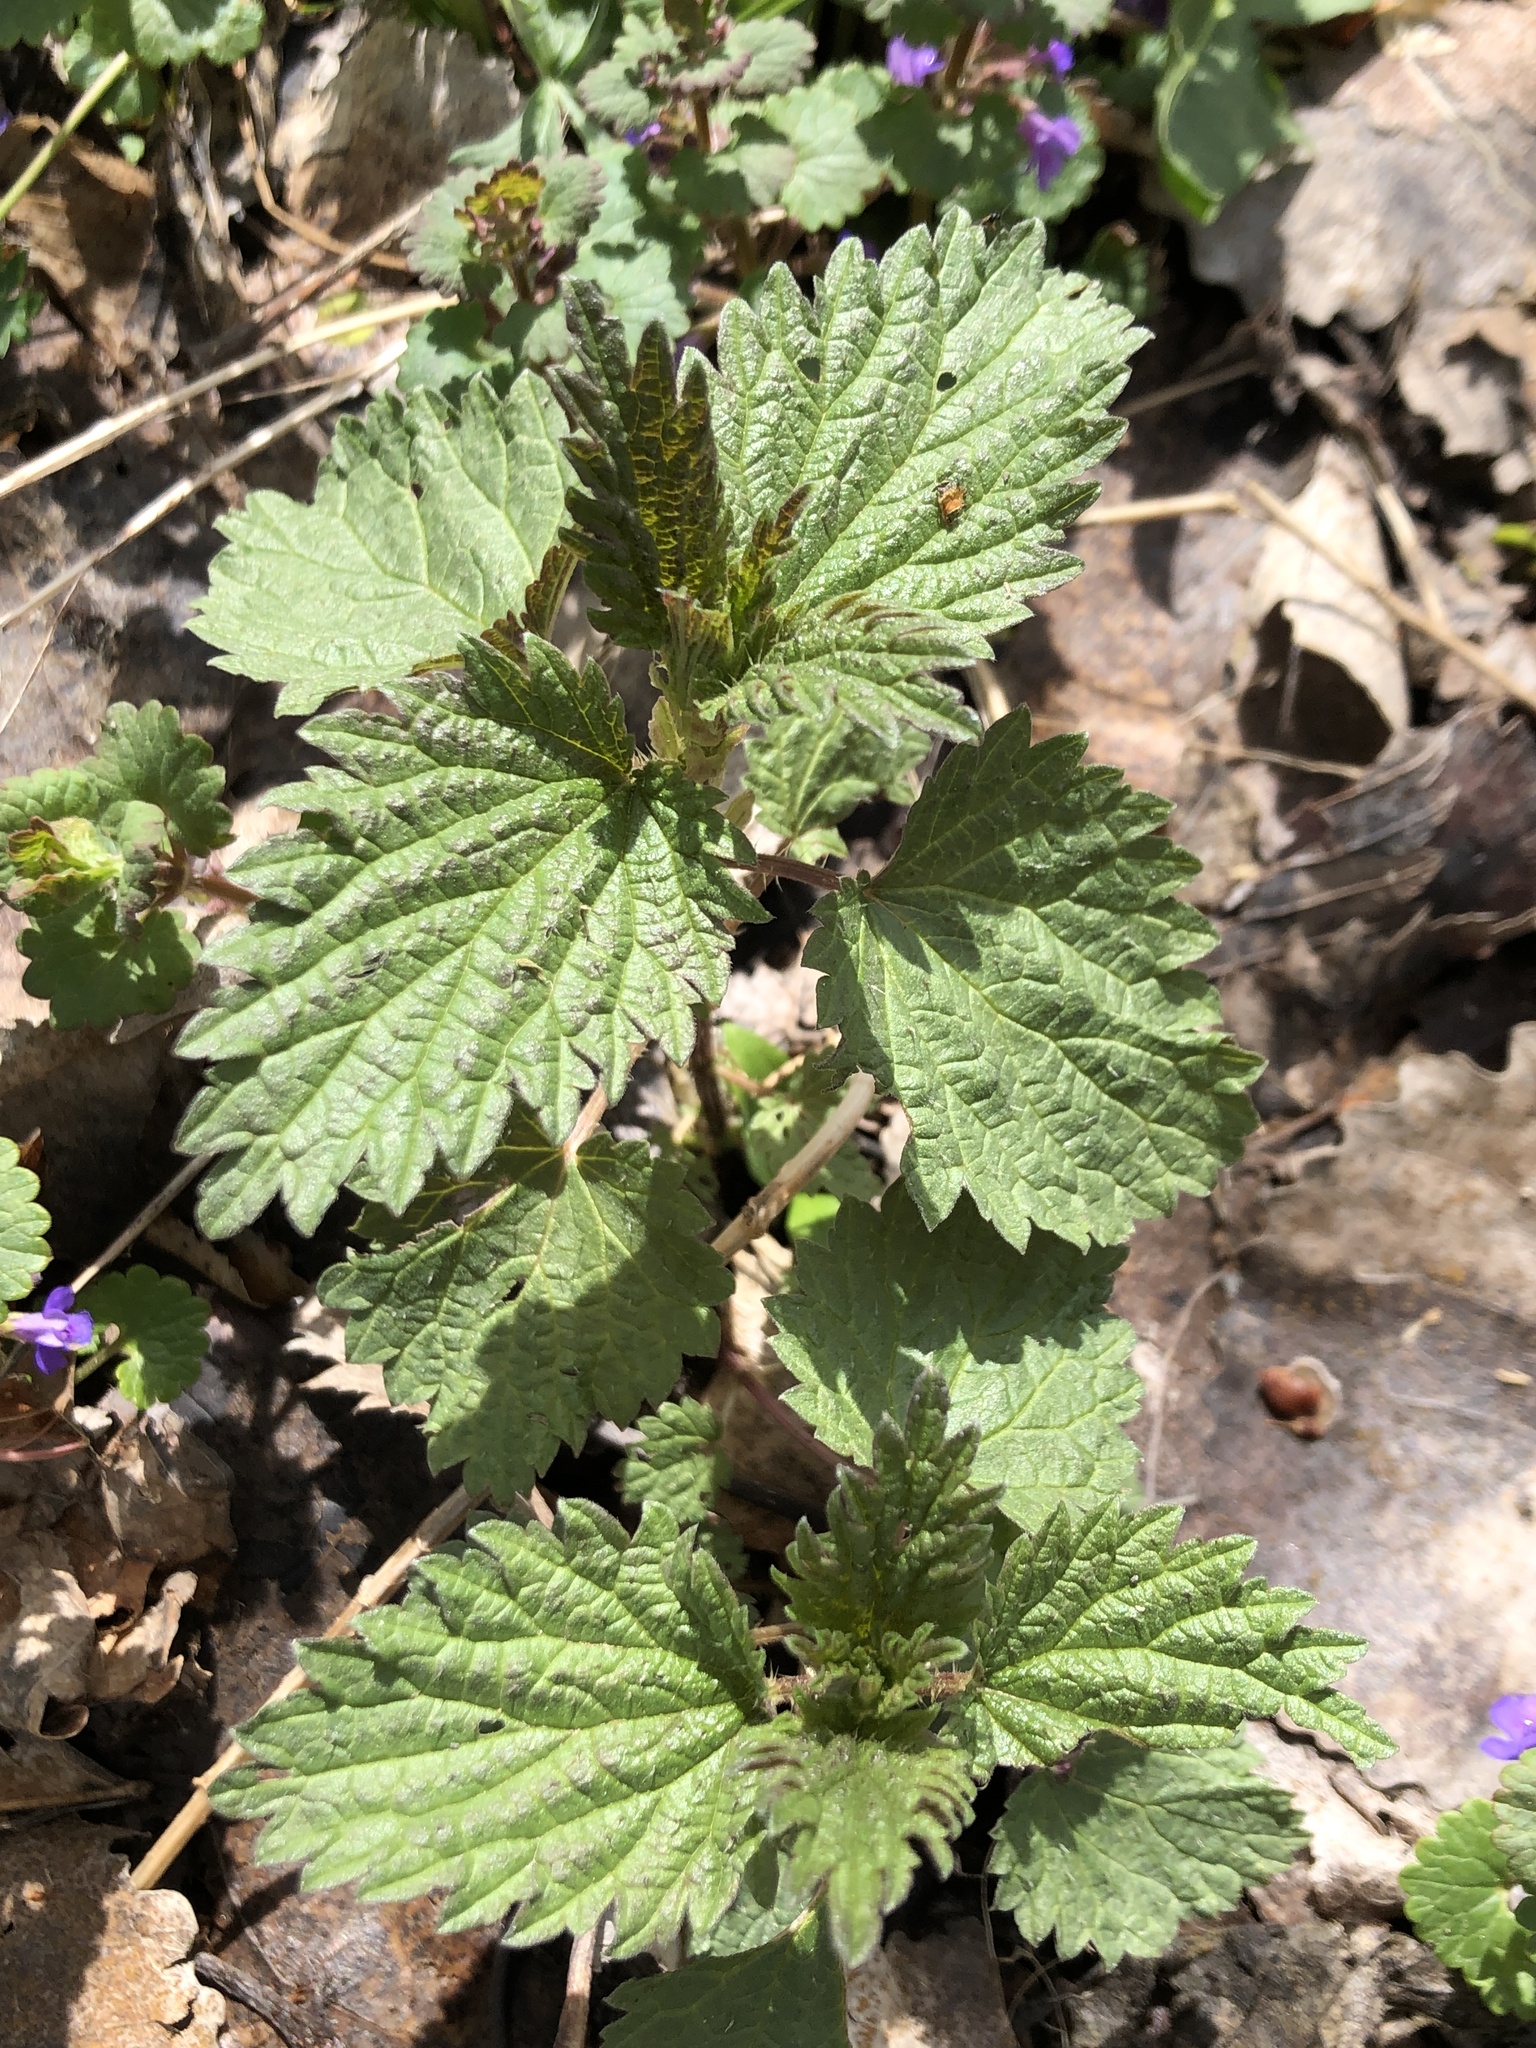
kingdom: Plantae
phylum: Tracheophyta
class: Magnoliopsida
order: Rosales
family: Urticaceae
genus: Urtica
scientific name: Urtica dioica
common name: Common nettle
